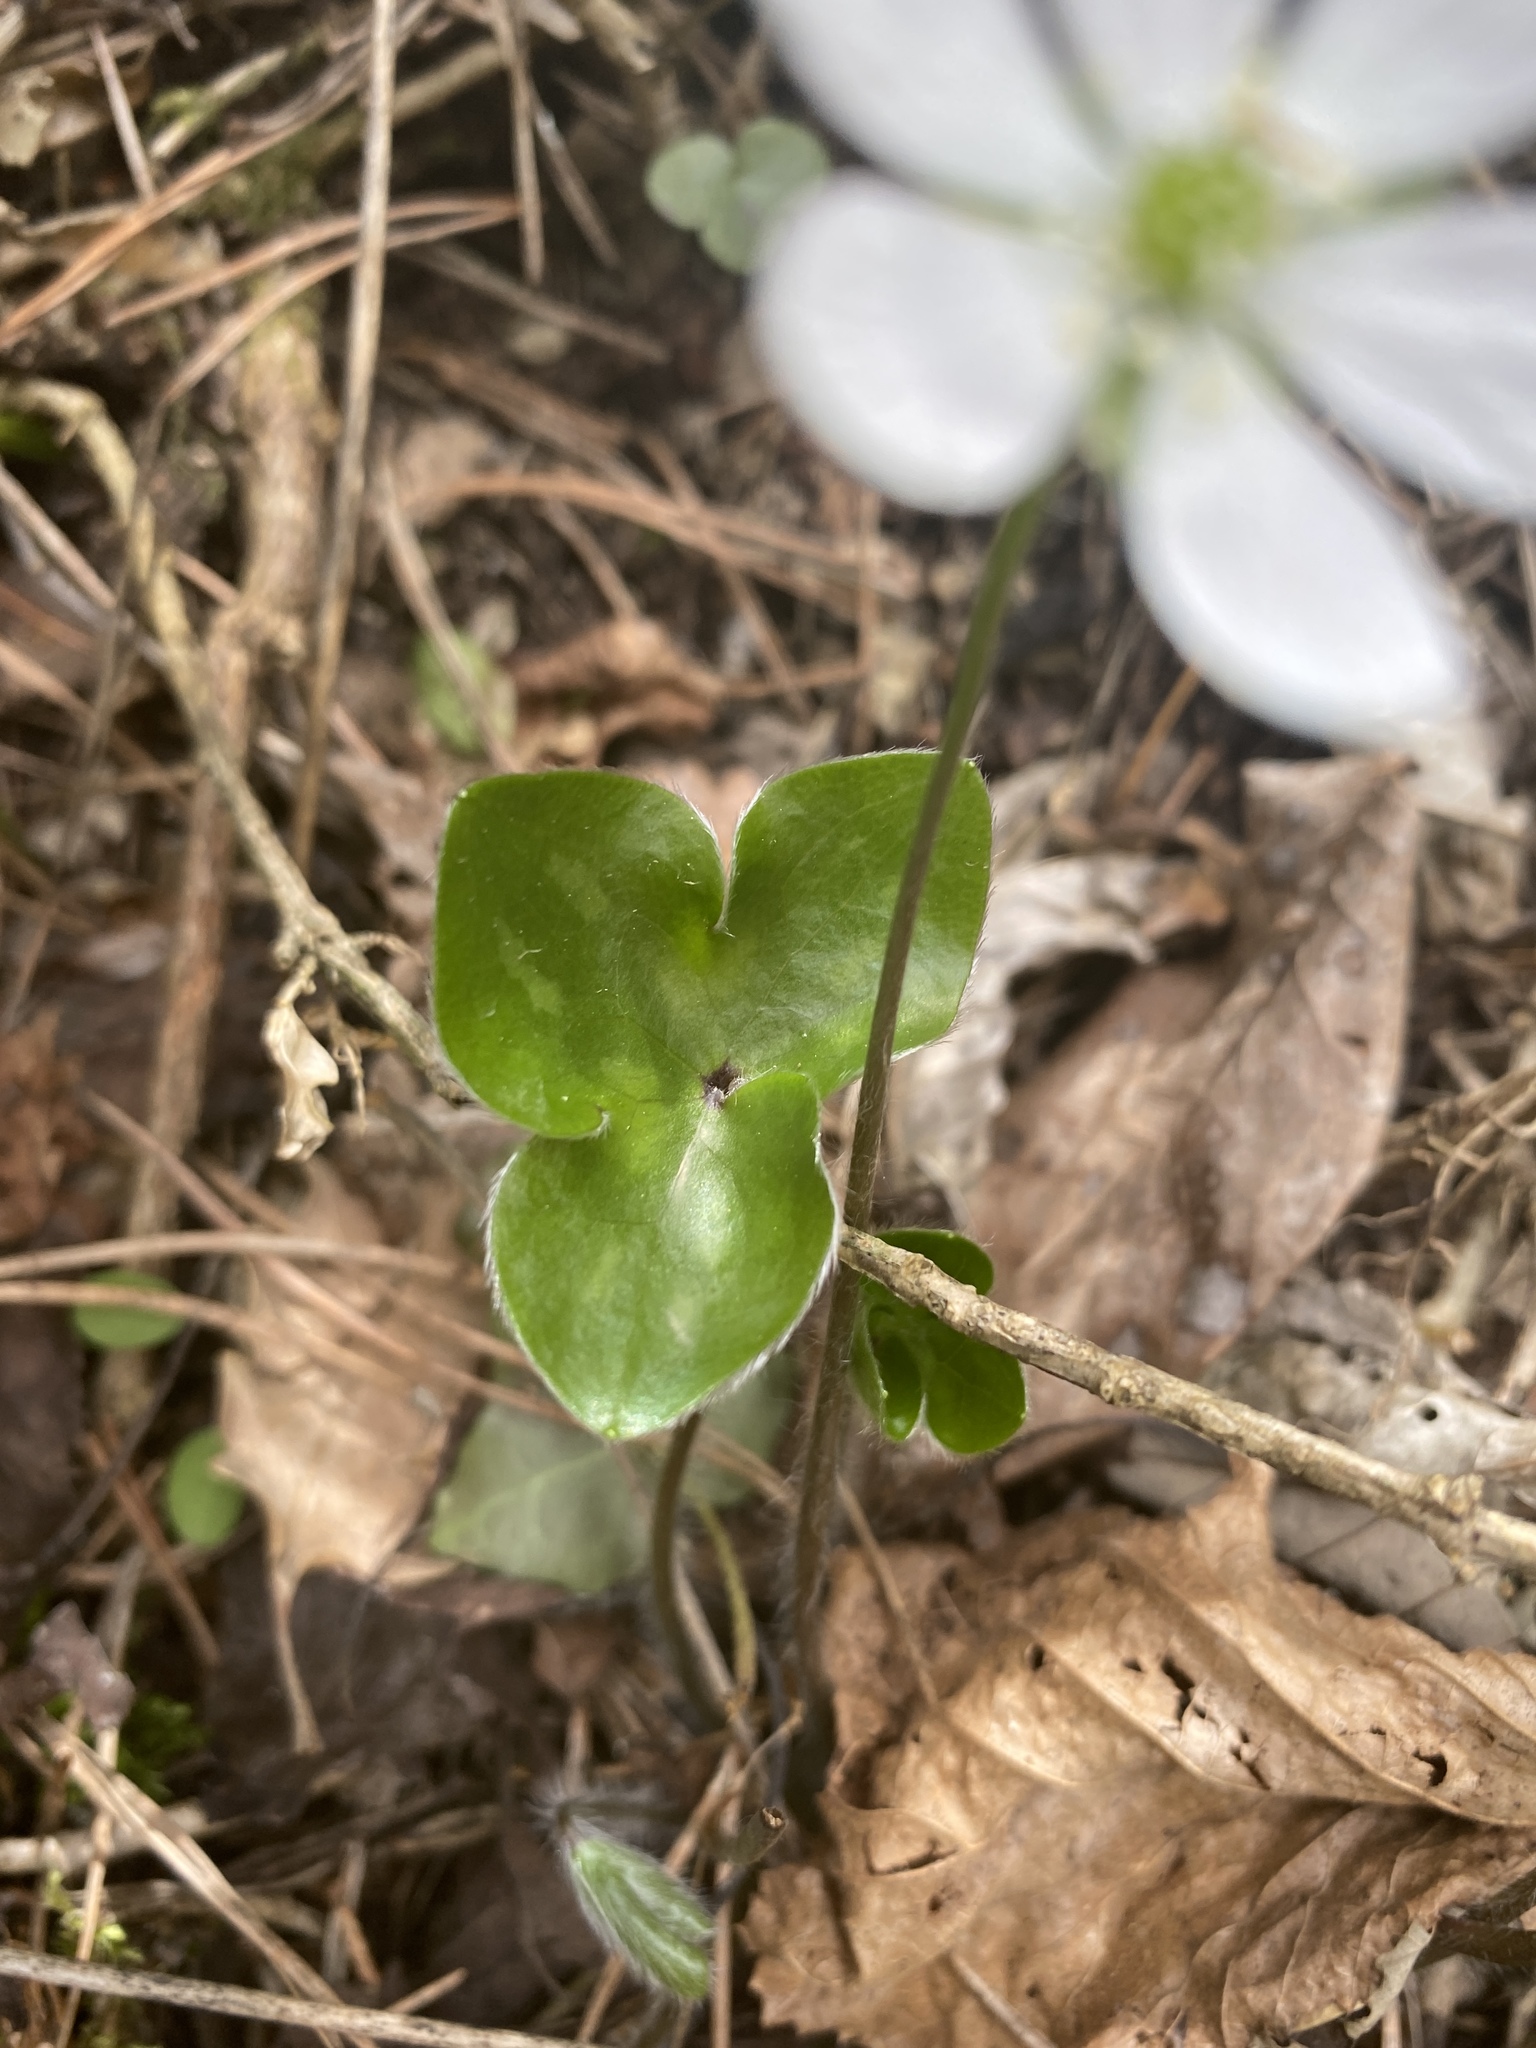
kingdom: Plantae
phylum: Tracheophyta
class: Magnoliopsida
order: Ranunculales
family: Ranunculaceae
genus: Hepatica
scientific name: Hepatica nobilis
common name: Liverleaf
